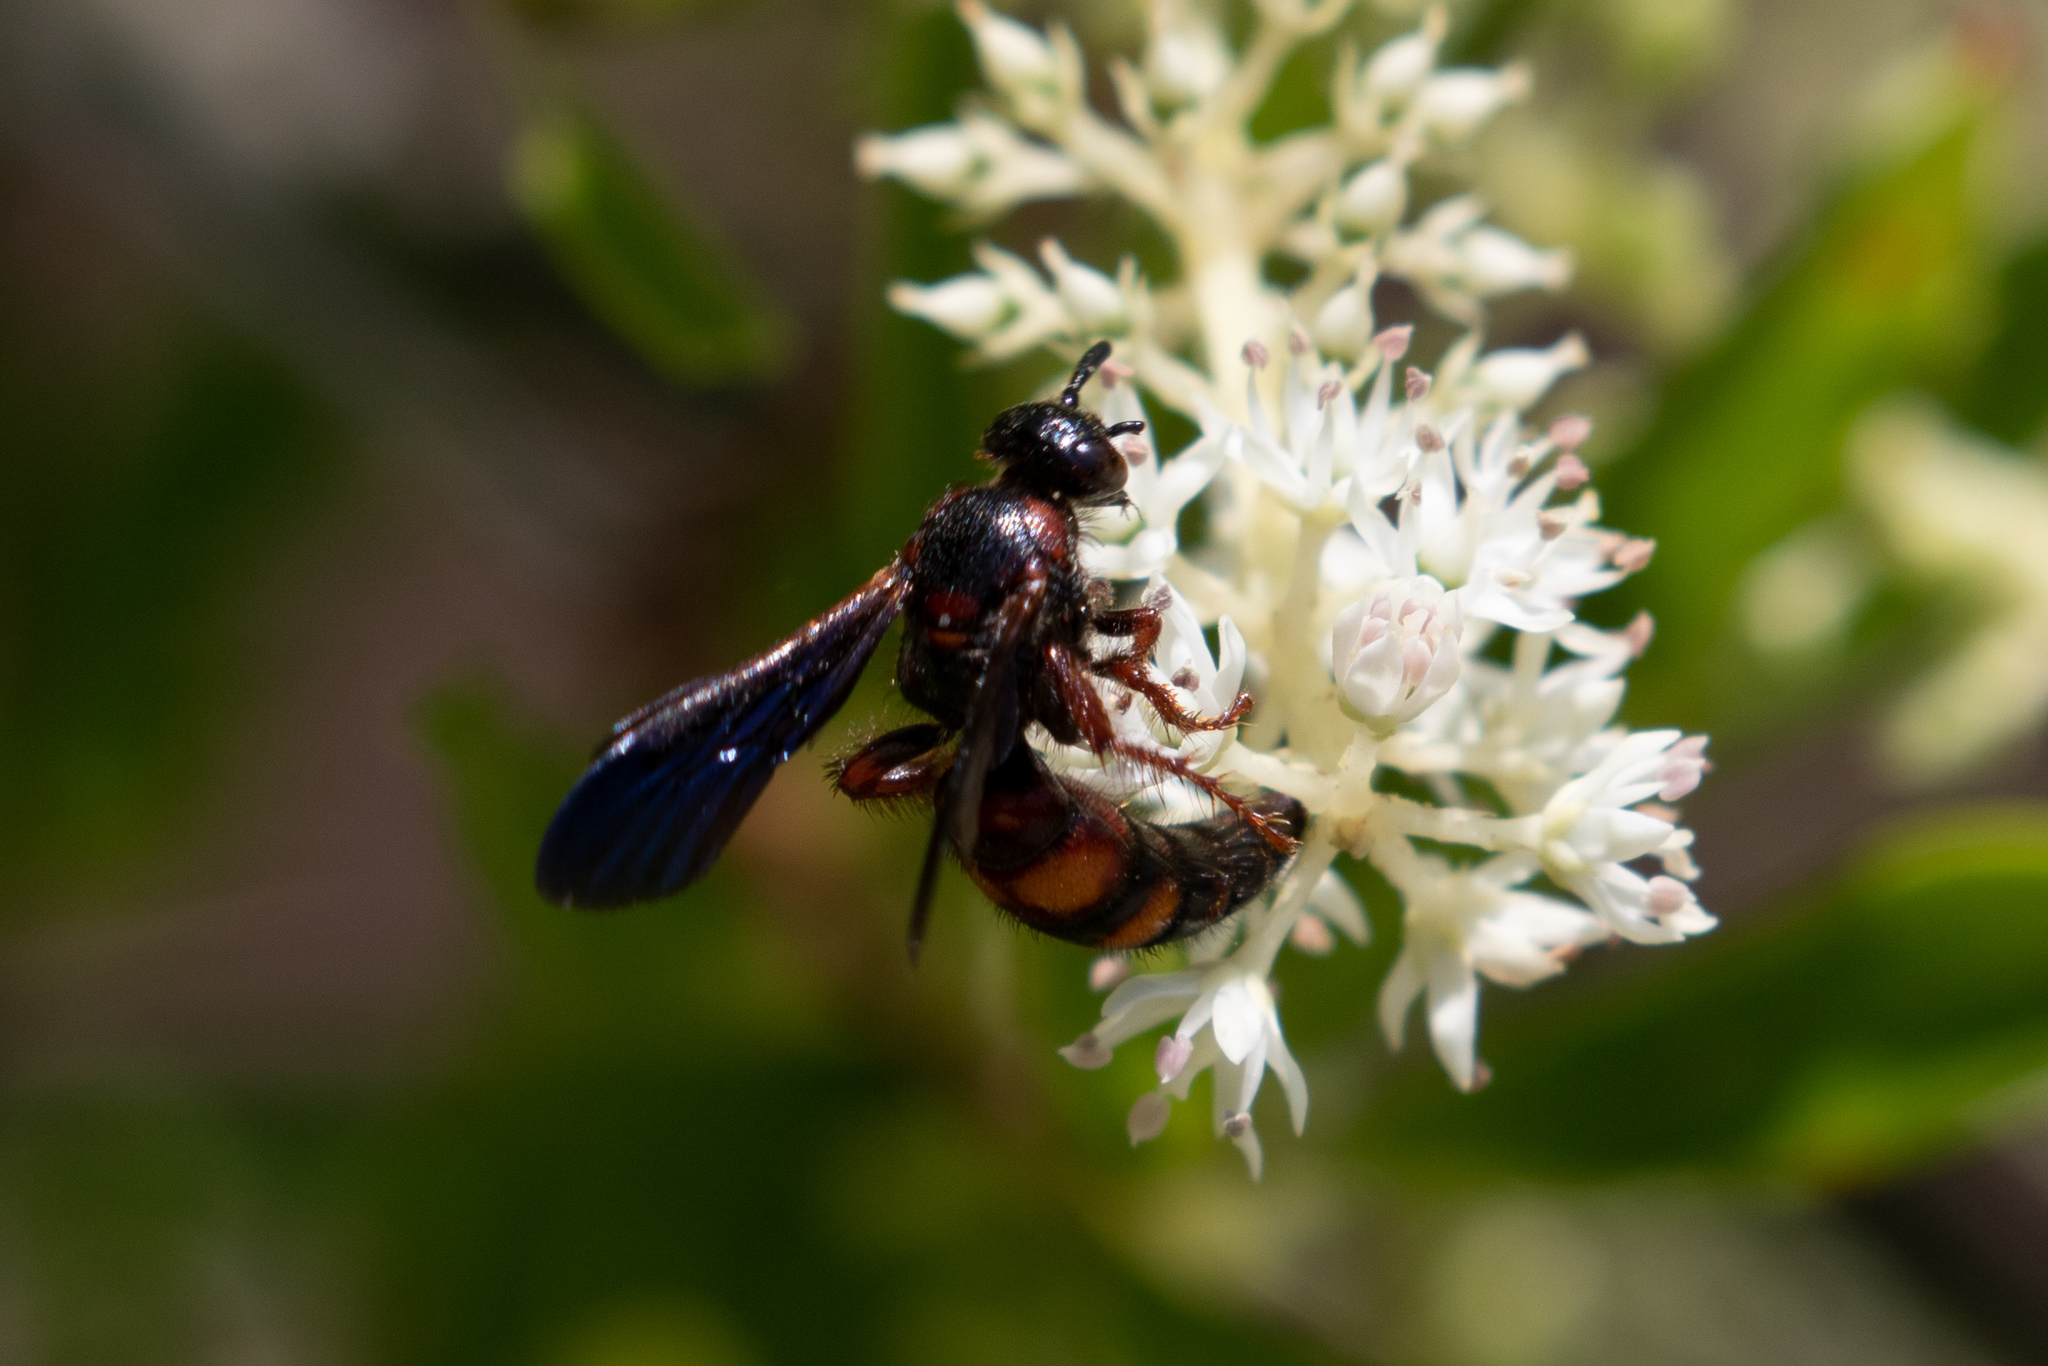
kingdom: Animalia
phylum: Arthropoda
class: Insecta
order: Hymenoptera
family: Scoliidae
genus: Scolia
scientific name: Scolia nobilitata
